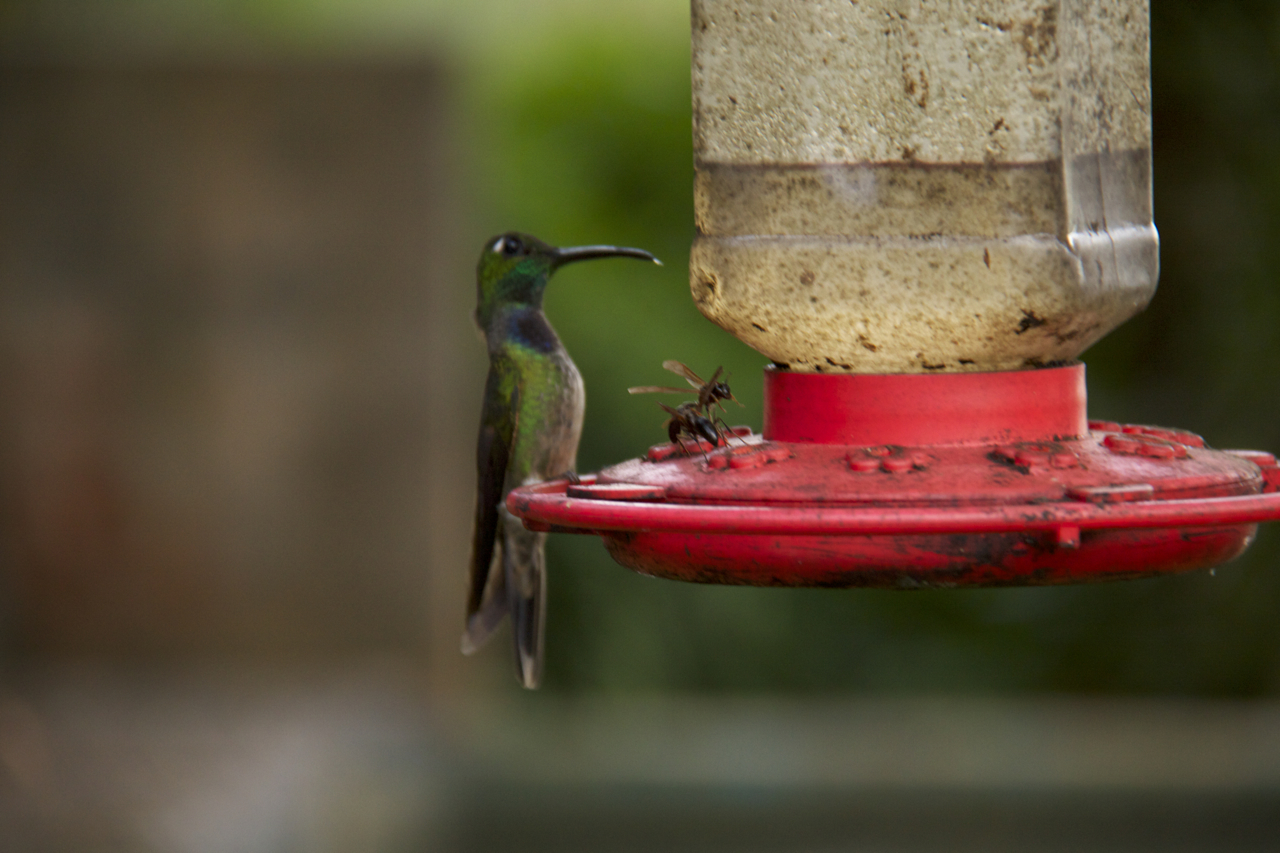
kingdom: Animalia
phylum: Chordata
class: Aves
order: Apodiformes
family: Trochilidae
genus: Sternoclyta
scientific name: Sternoclyta cyanopectus
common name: Violet-chested hummingbird
